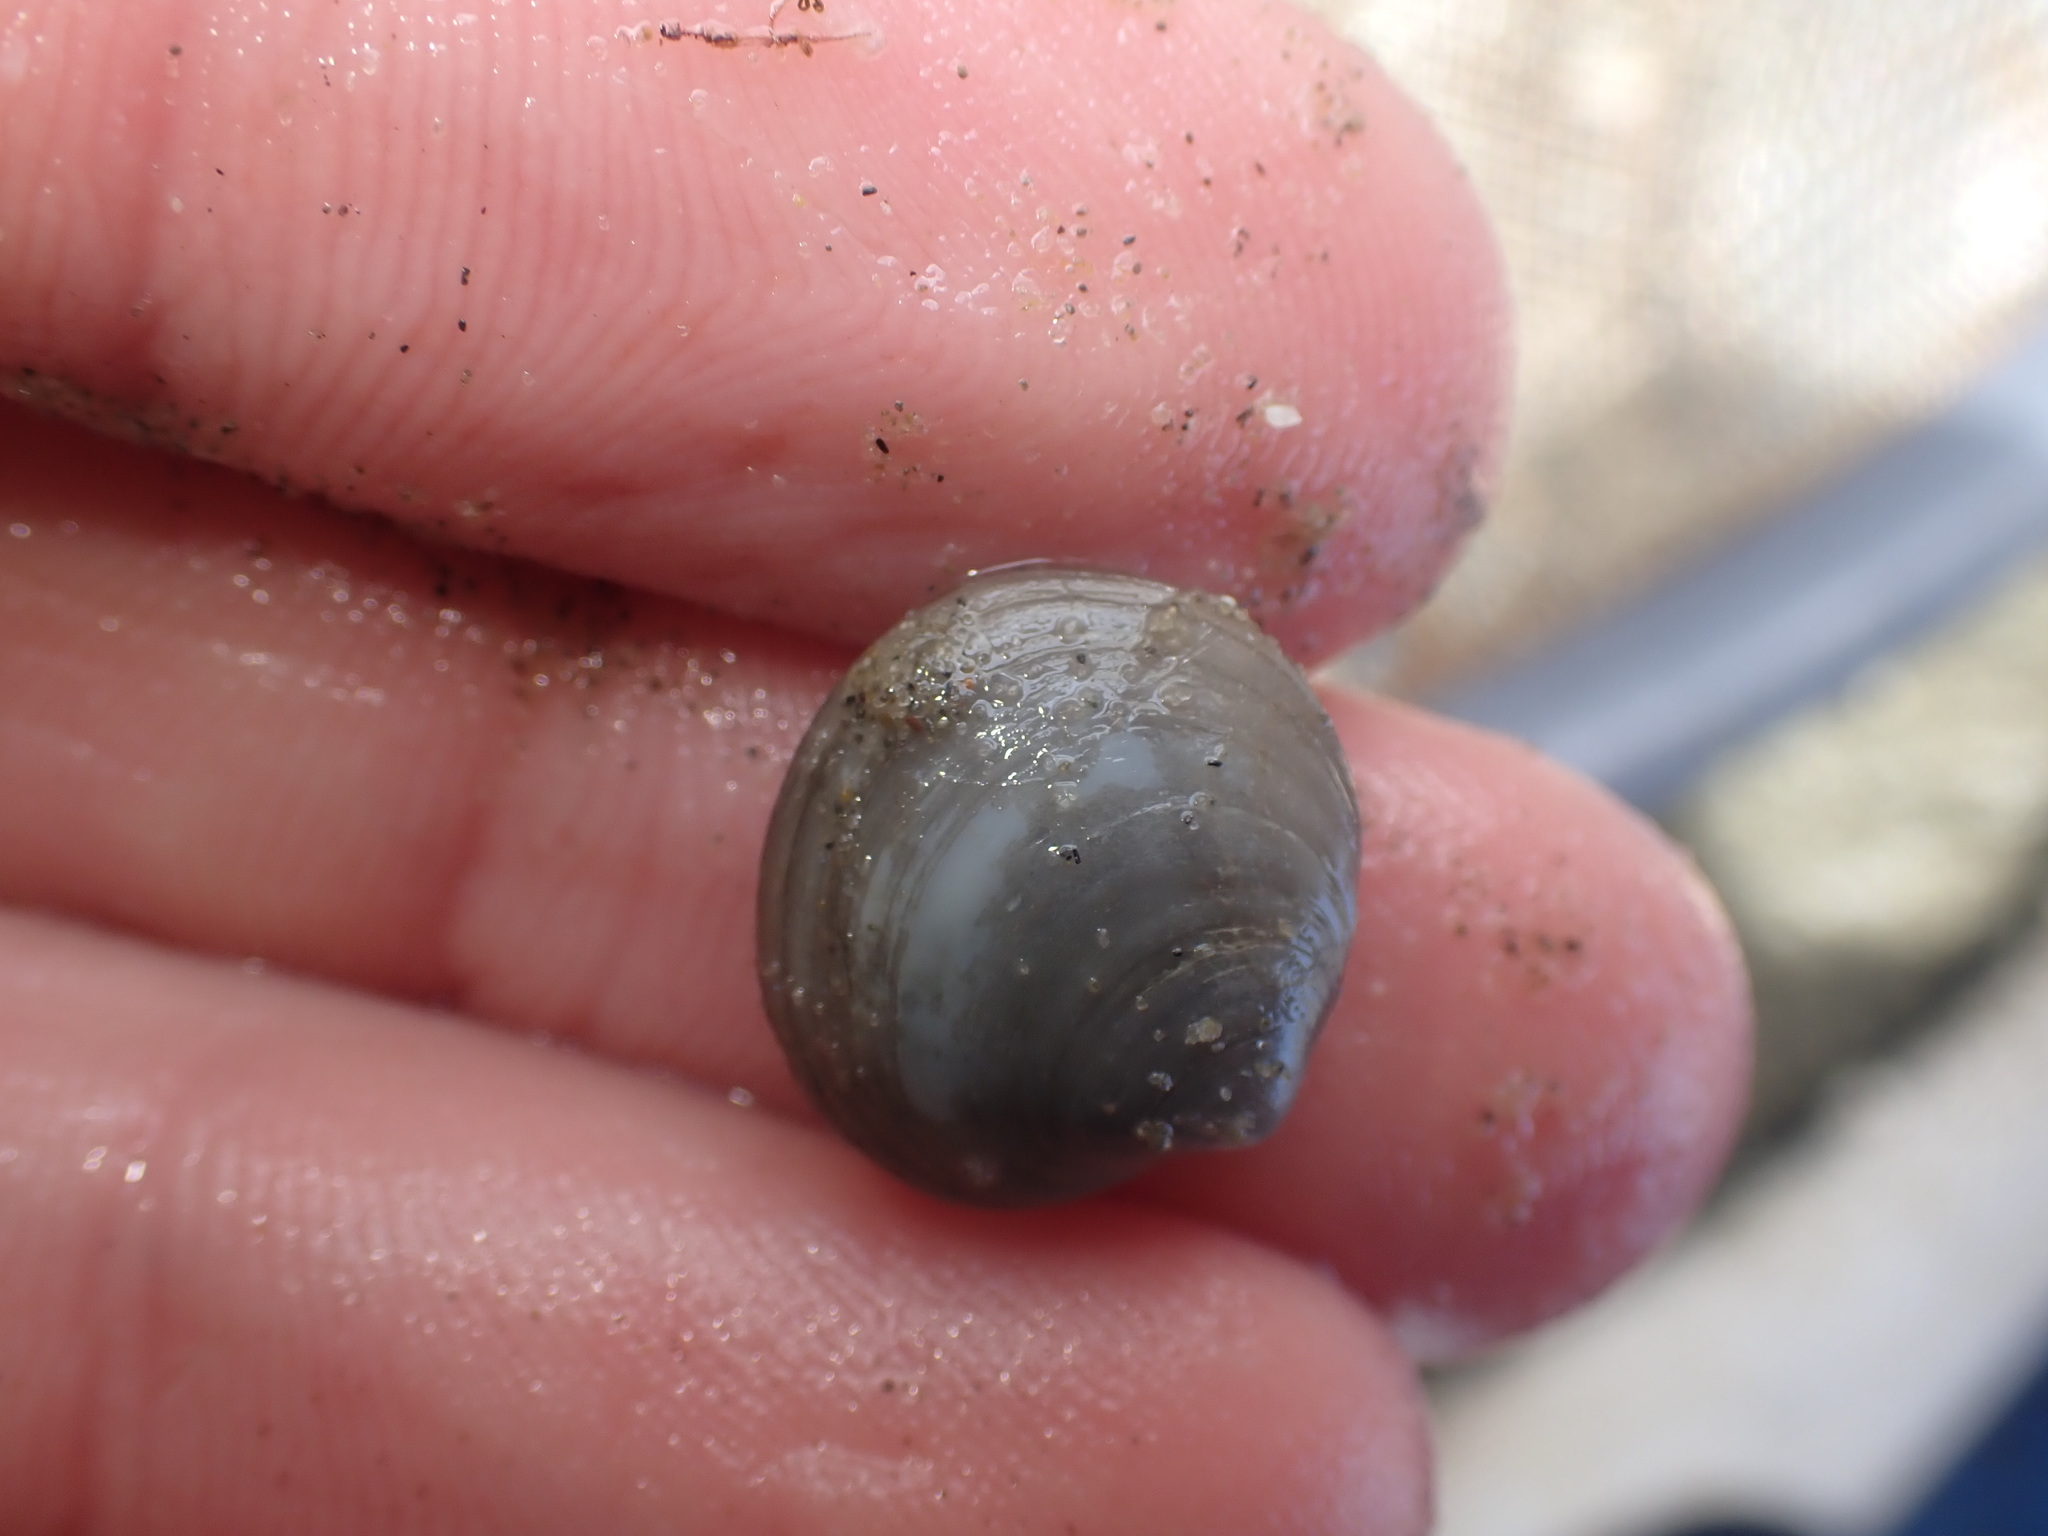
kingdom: Animalia
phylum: Mollusca
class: Bivalvia
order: Venerida
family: Ungulinidae
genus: Zemysia
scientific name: Zemysia zelandica
